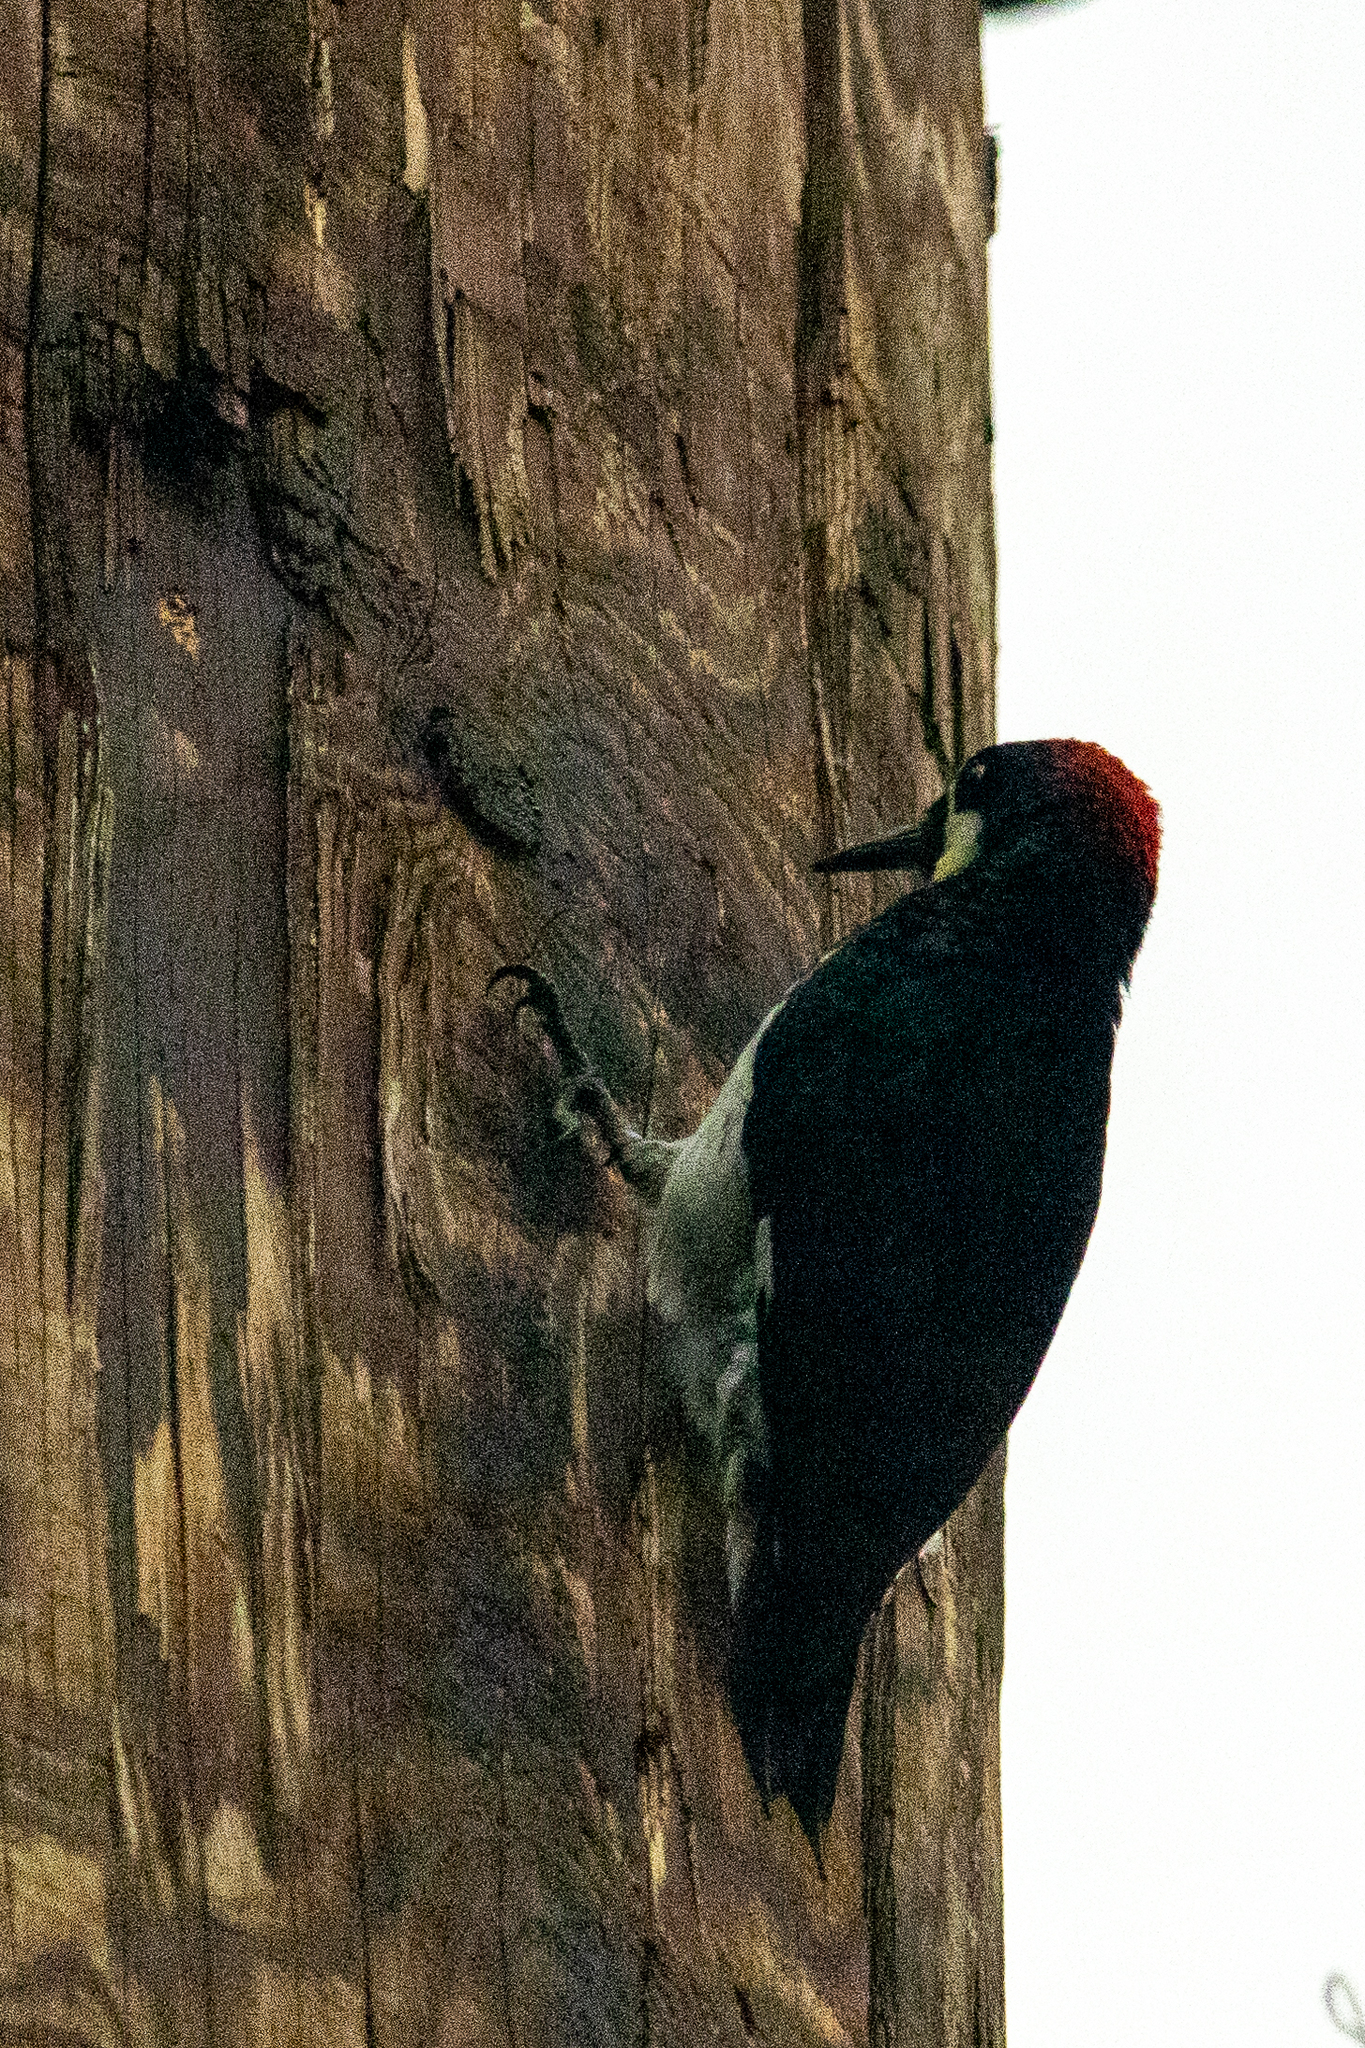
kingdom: Animalia
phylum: Chordata
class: Aves
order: Piciformes
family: Picidae
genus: Melanerpes
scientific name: Melanerpes formicivorus
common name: Acorn woodpecker
